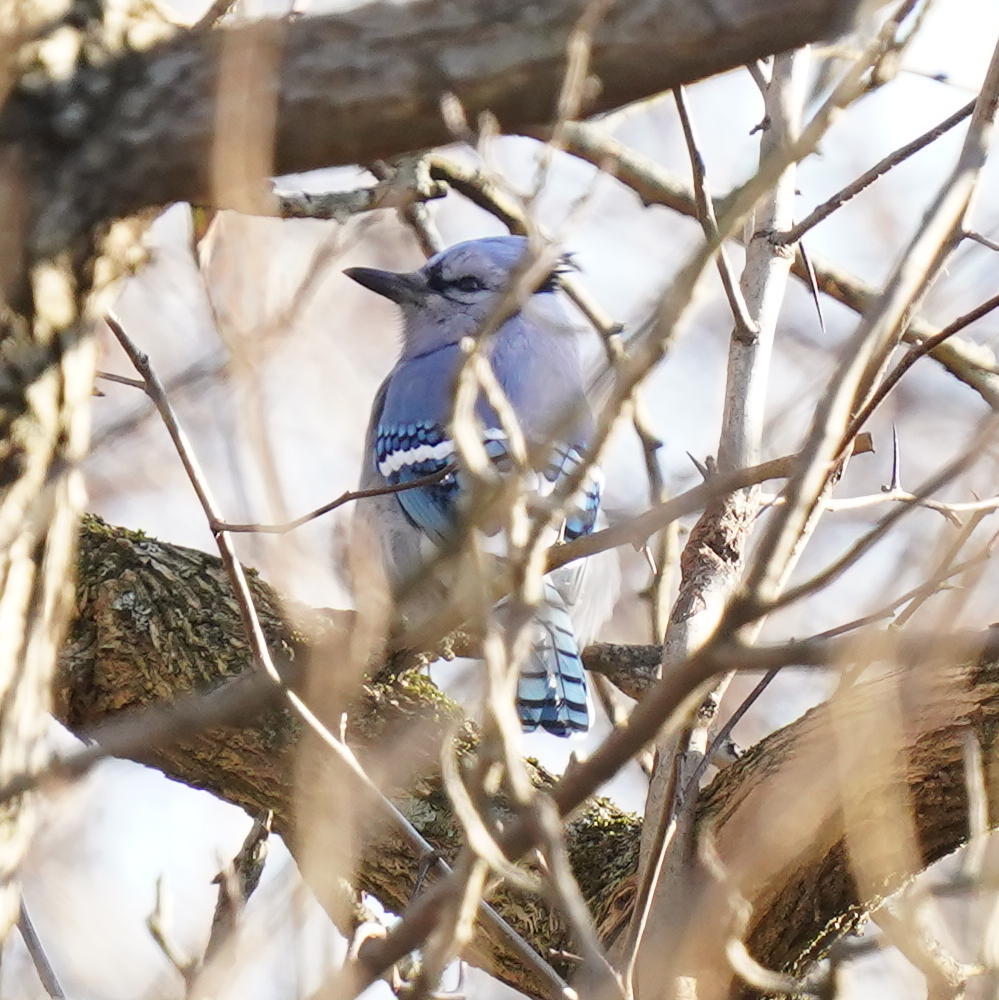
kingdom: Animalia
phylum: Chordata
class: Aves
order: Passeriformes
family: Corvidae
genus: Cyanocitta
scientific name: Cyanocitta cristata
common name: Blue jay
